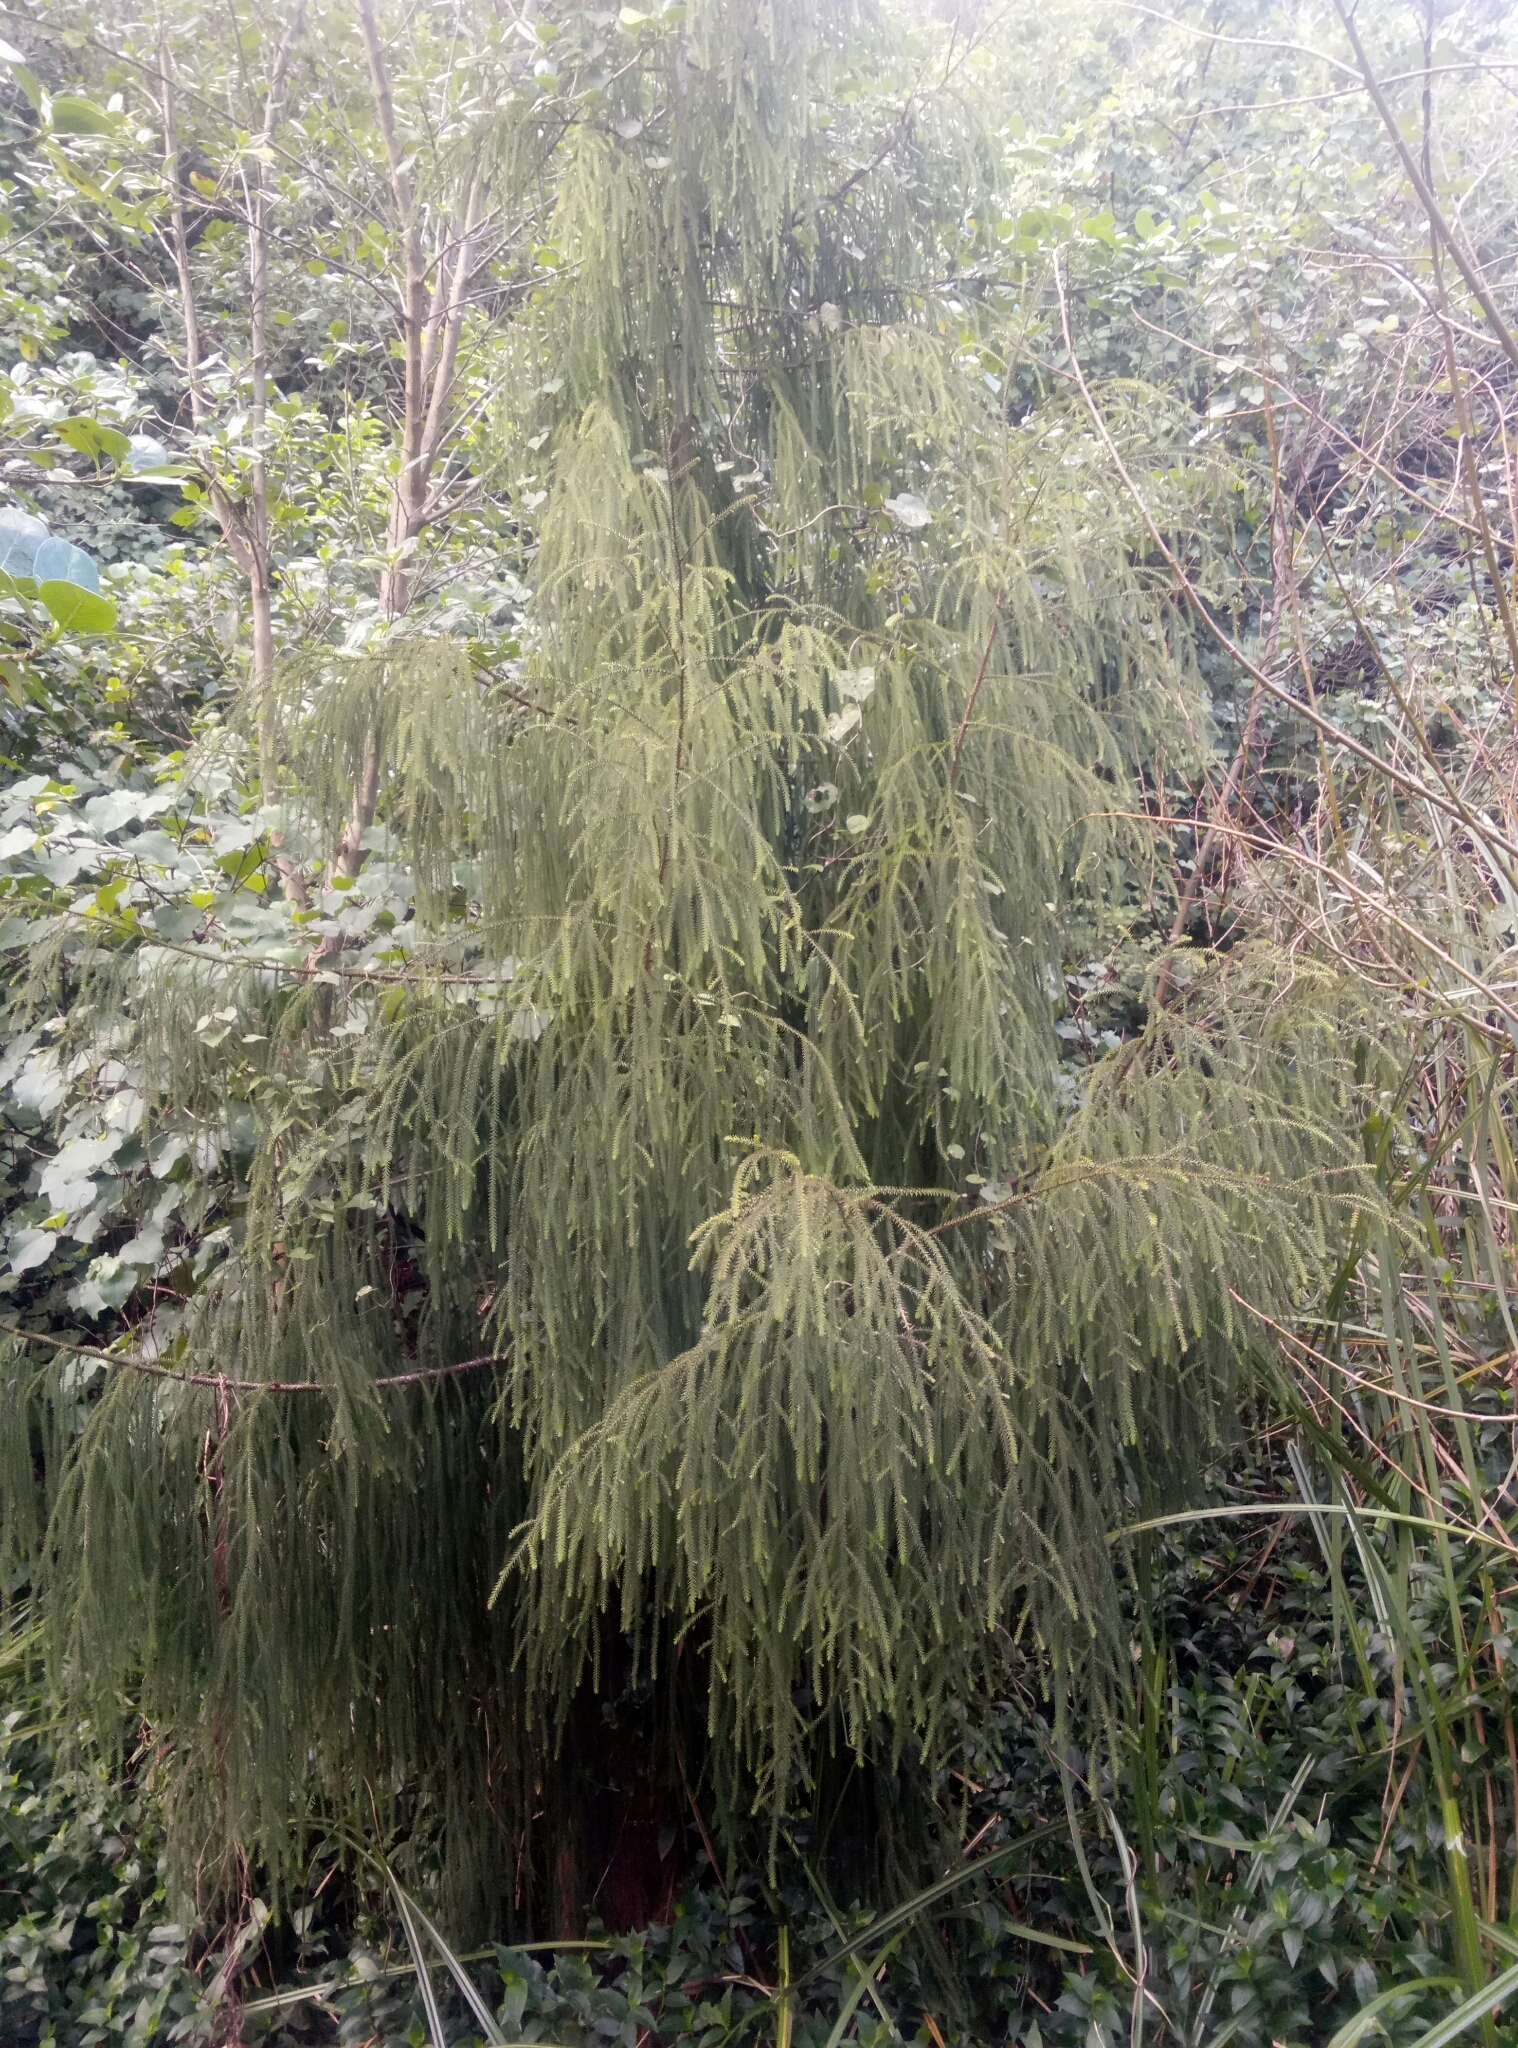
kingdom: Plantae
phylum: Tracheophyta
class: Pinopsida
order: Pinales
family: Podocarpaceae
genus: Dacrydium
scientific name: Dacrydium cupressinum
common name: Red pine
